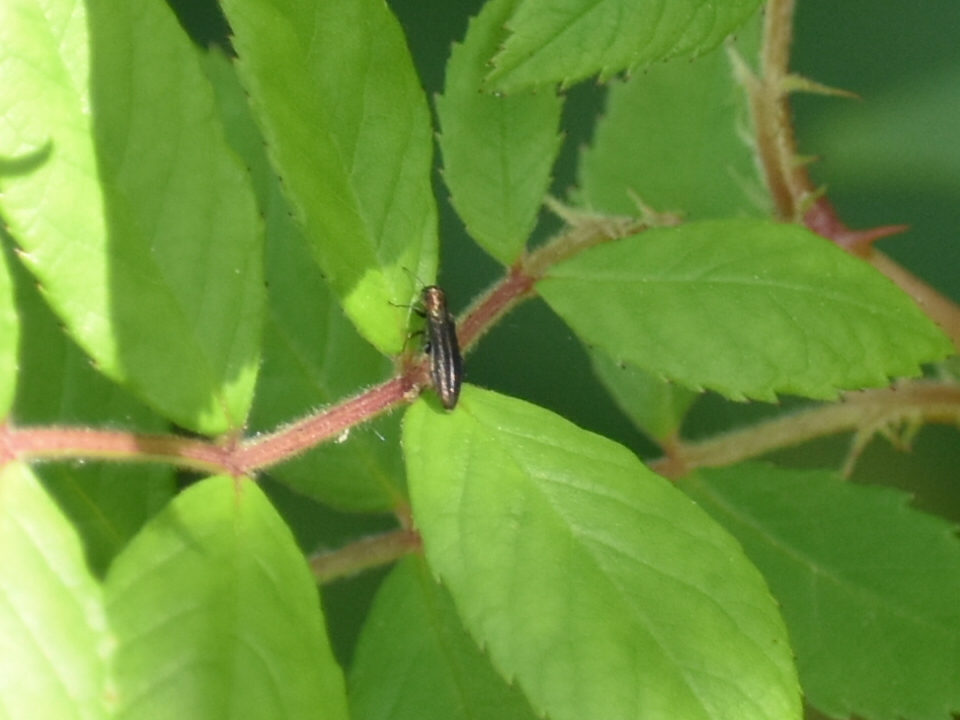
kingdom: Animalia
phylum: Arthropoda
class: Insecta
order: Coleoptera
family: Buprestidae
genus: Agrilus
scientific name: Agrilus ruficollis
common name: Red-necked cane borer beetle
